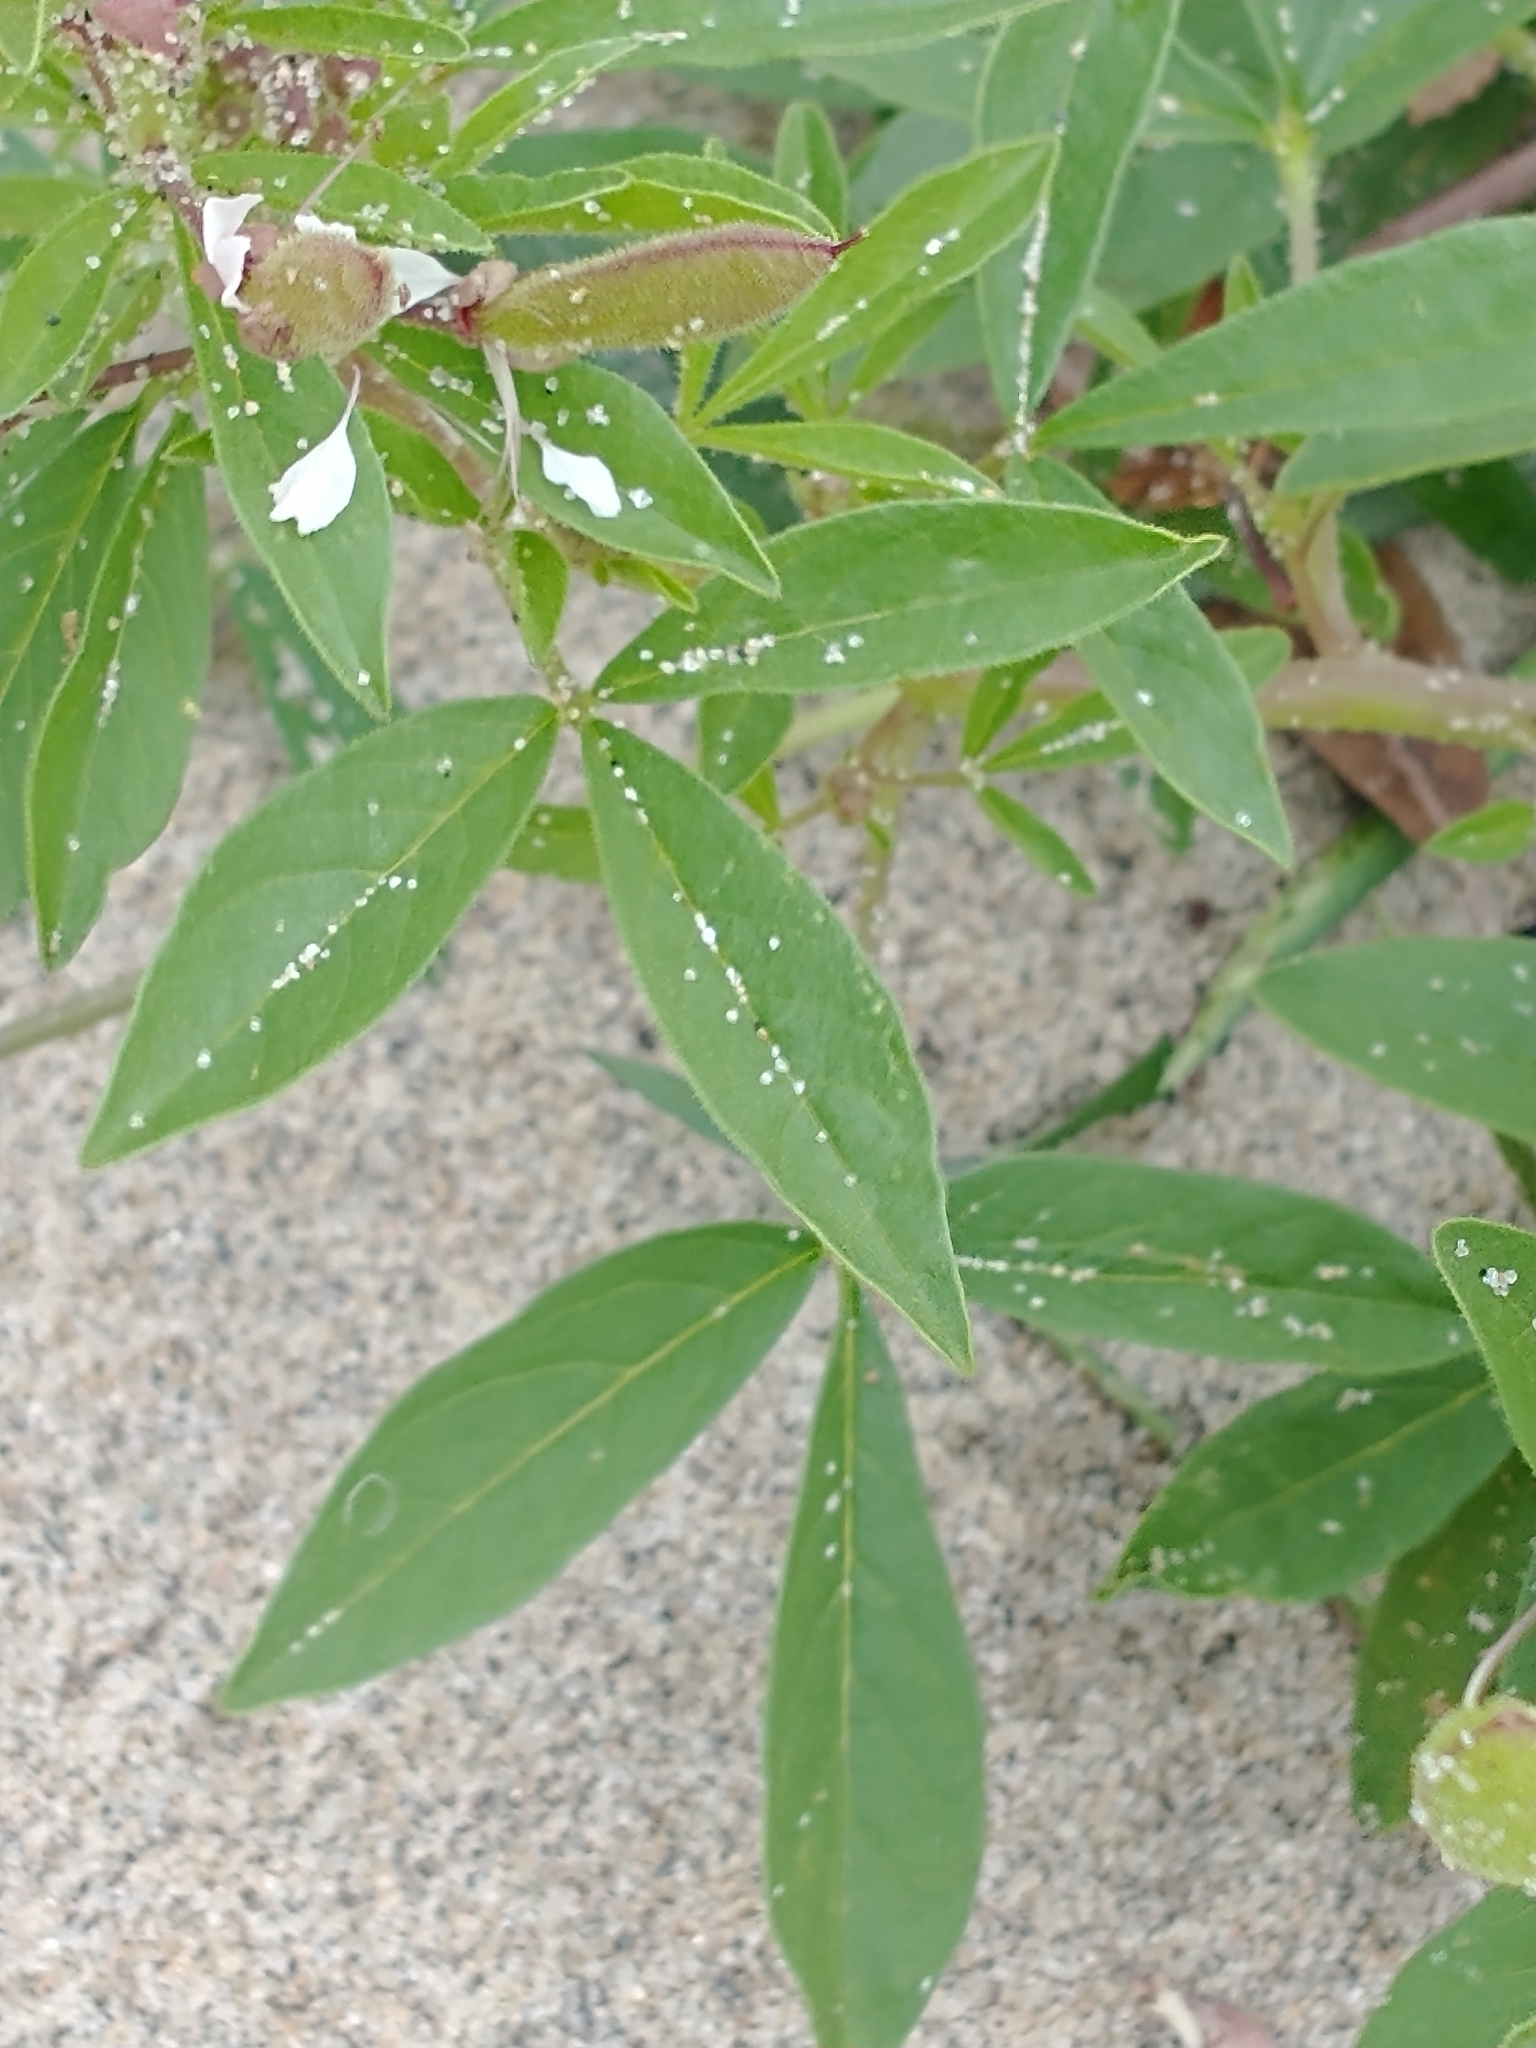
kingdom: Plantae
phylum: Tracheophyta
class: Magnoliopsida
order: Brassicales
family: Cleomaceae
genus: Polanisia
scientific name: Polanisia dodecandra
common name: Clammyweed
